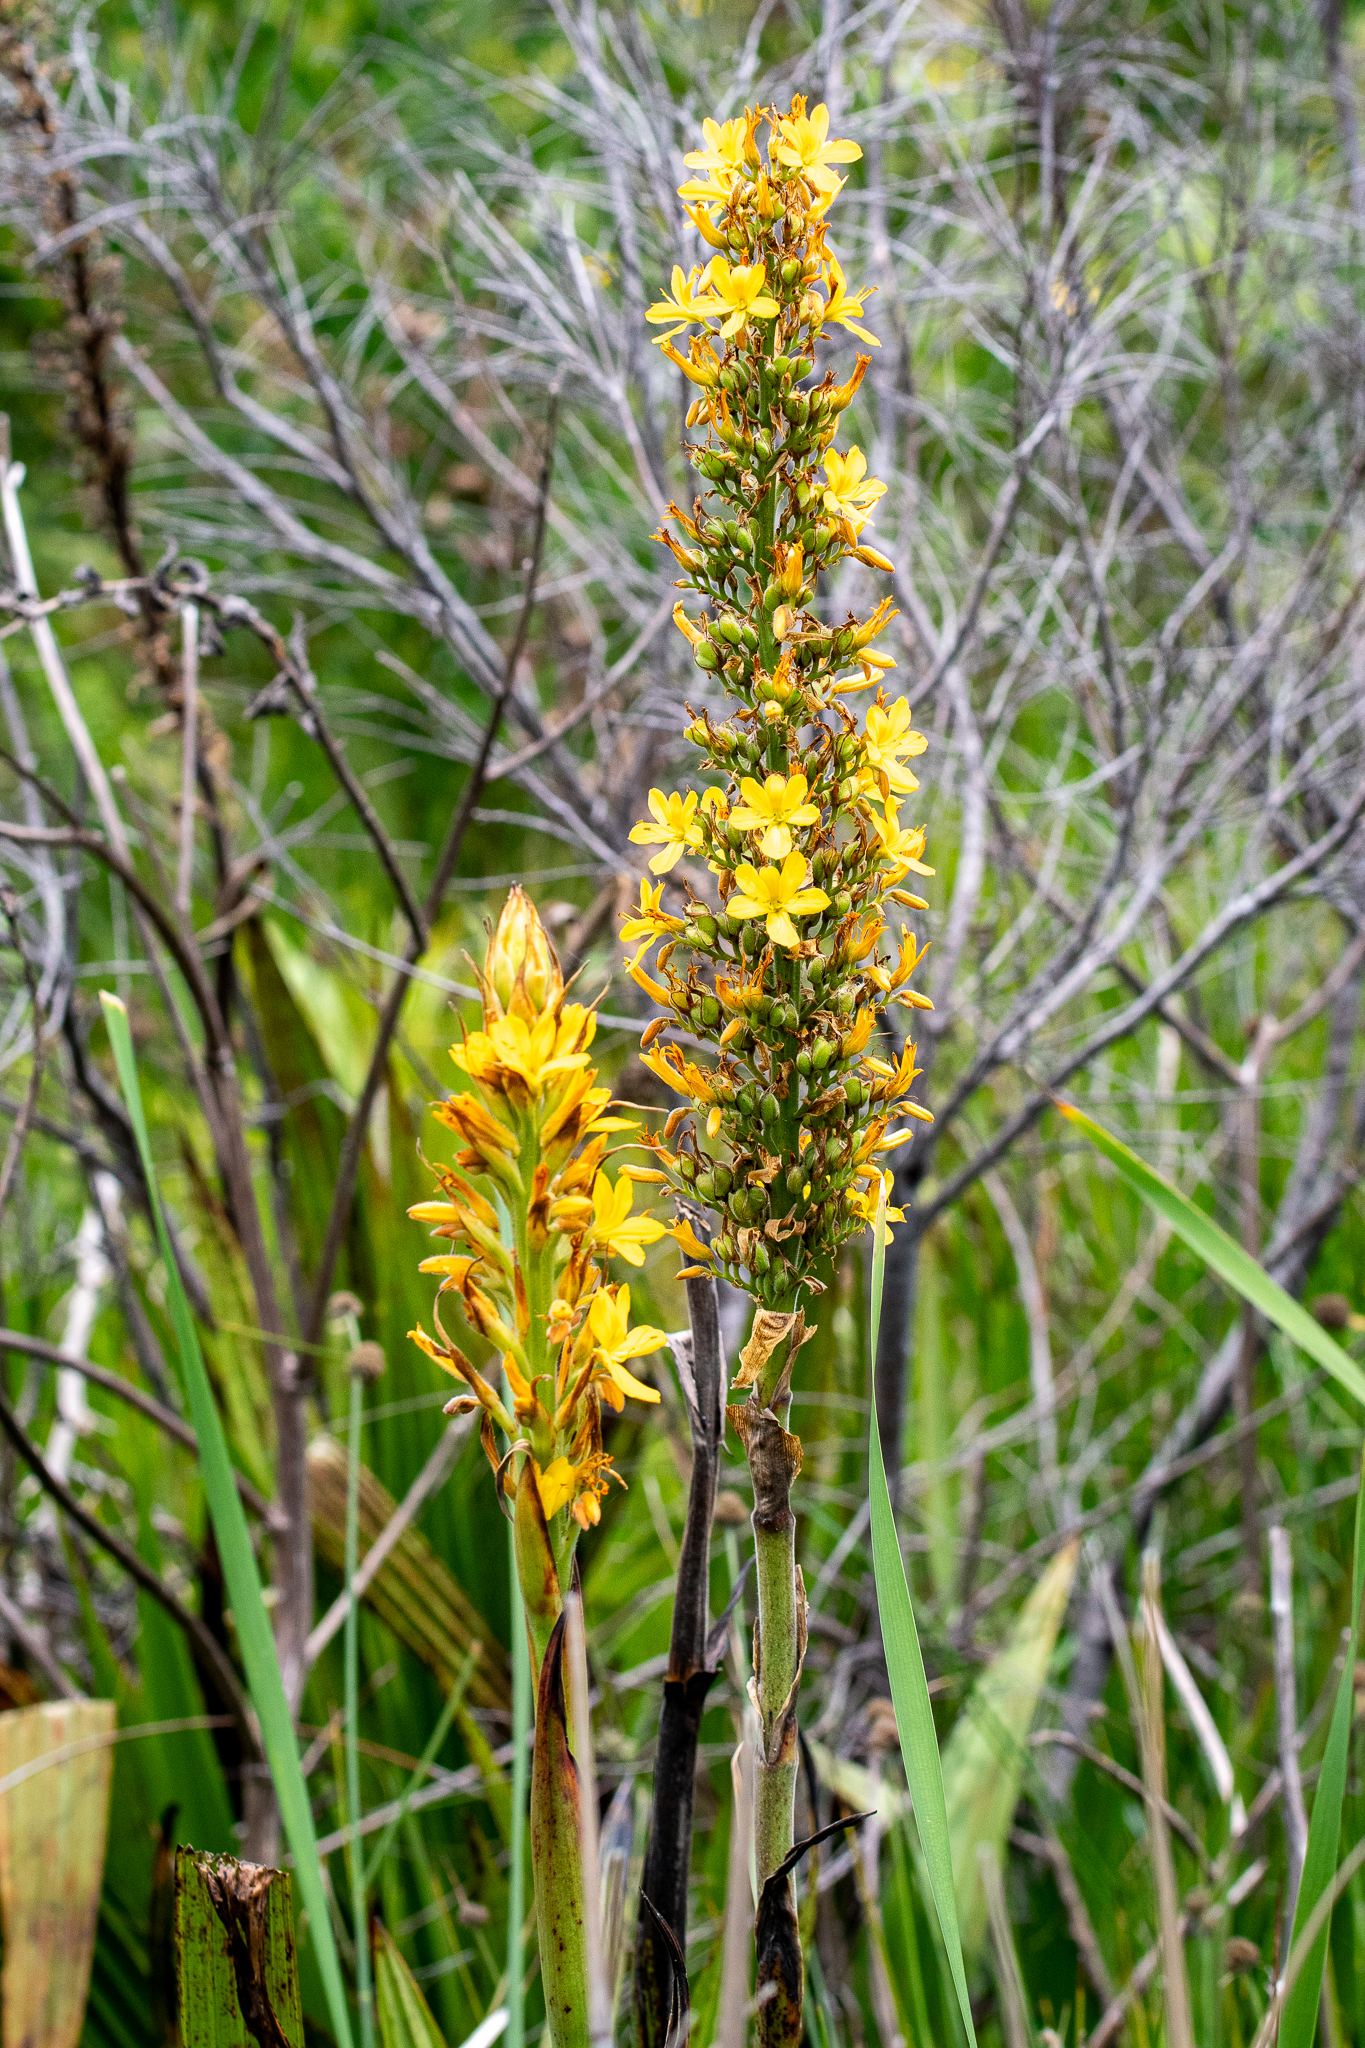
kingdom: Plantae
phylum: Tracheophyta
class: Liliopsida
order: Commelinales
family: Haemodoraceae
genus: Wachendorfia
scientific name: Wachendorfia thyrsiflora
